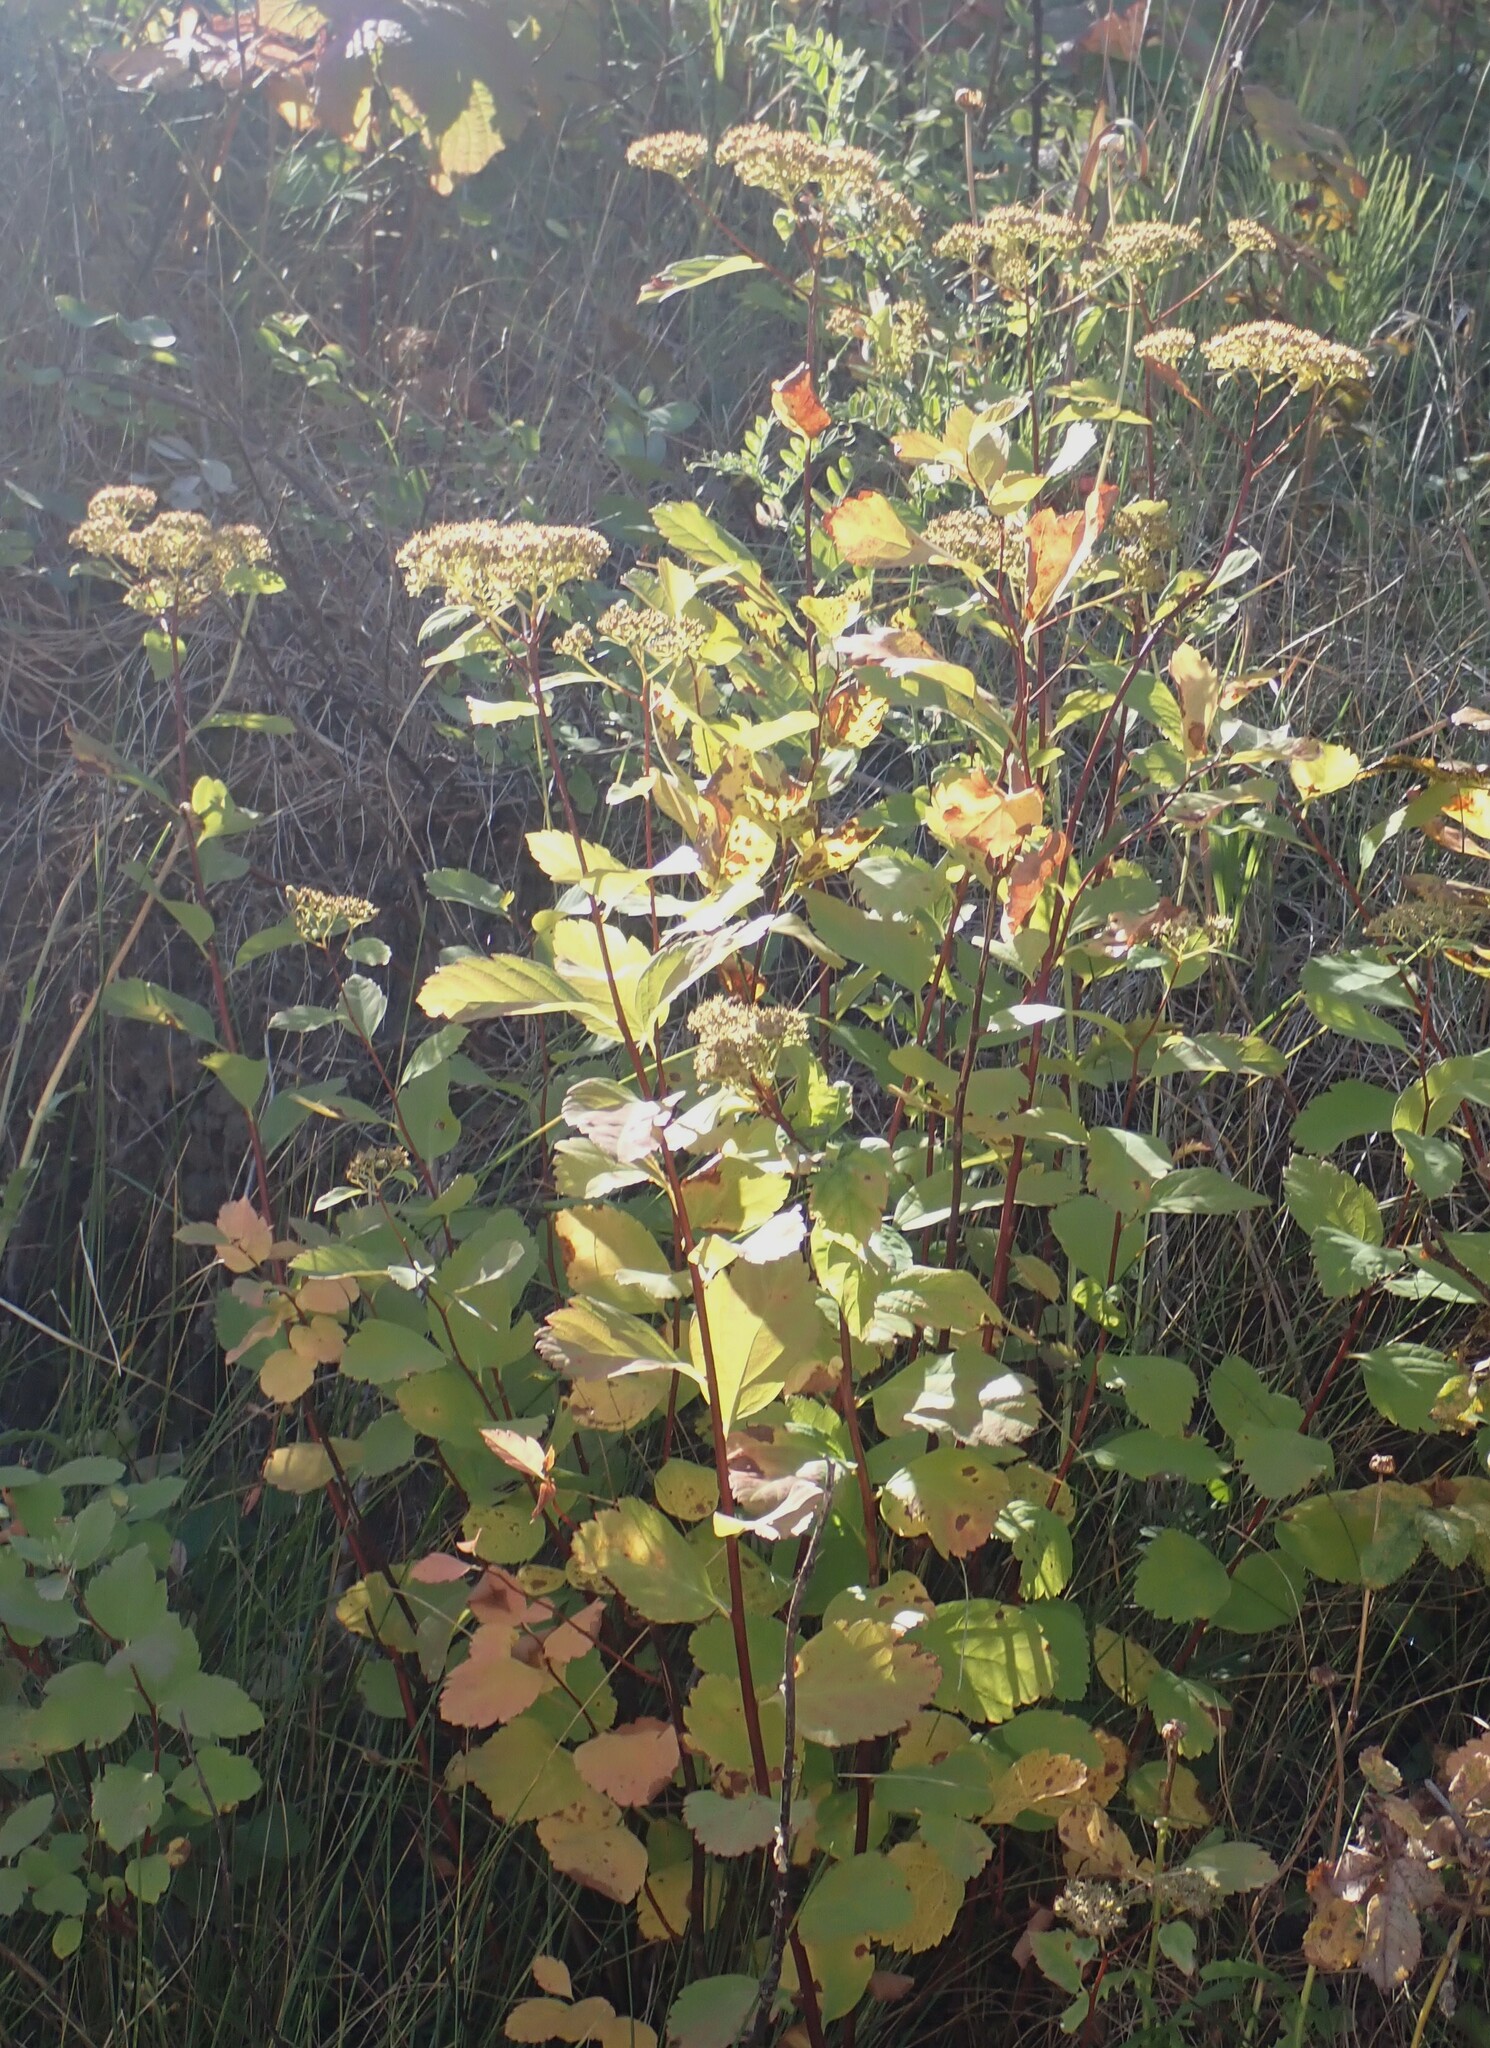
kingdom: Plantae
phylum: Tracheophyta
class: Magnoliopsida
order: Rosales
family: Rosaceae
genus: Spiraea
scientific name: Spiraea lucida
